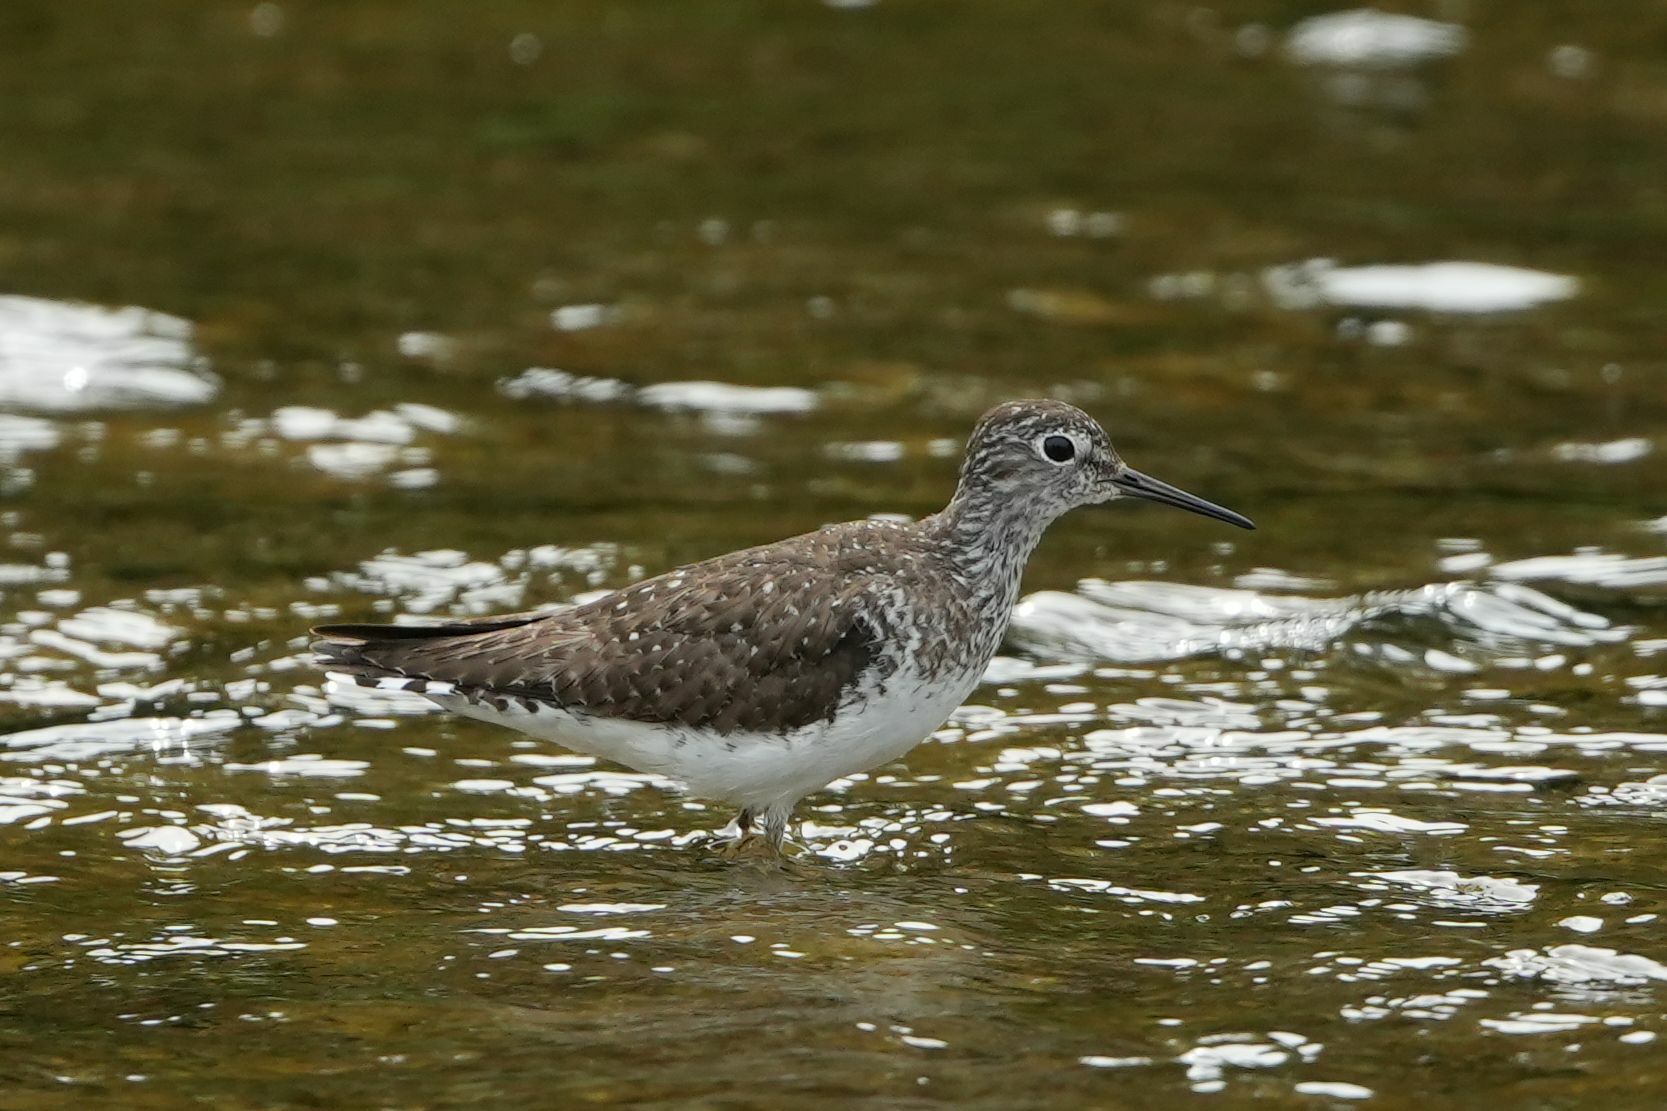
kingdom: Animalia
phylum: Chordata
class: Aves
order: Charadriiformes
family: Scolopacidae
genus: Tringa
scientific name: Tringa solitaria
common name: Solitary sandpiper
